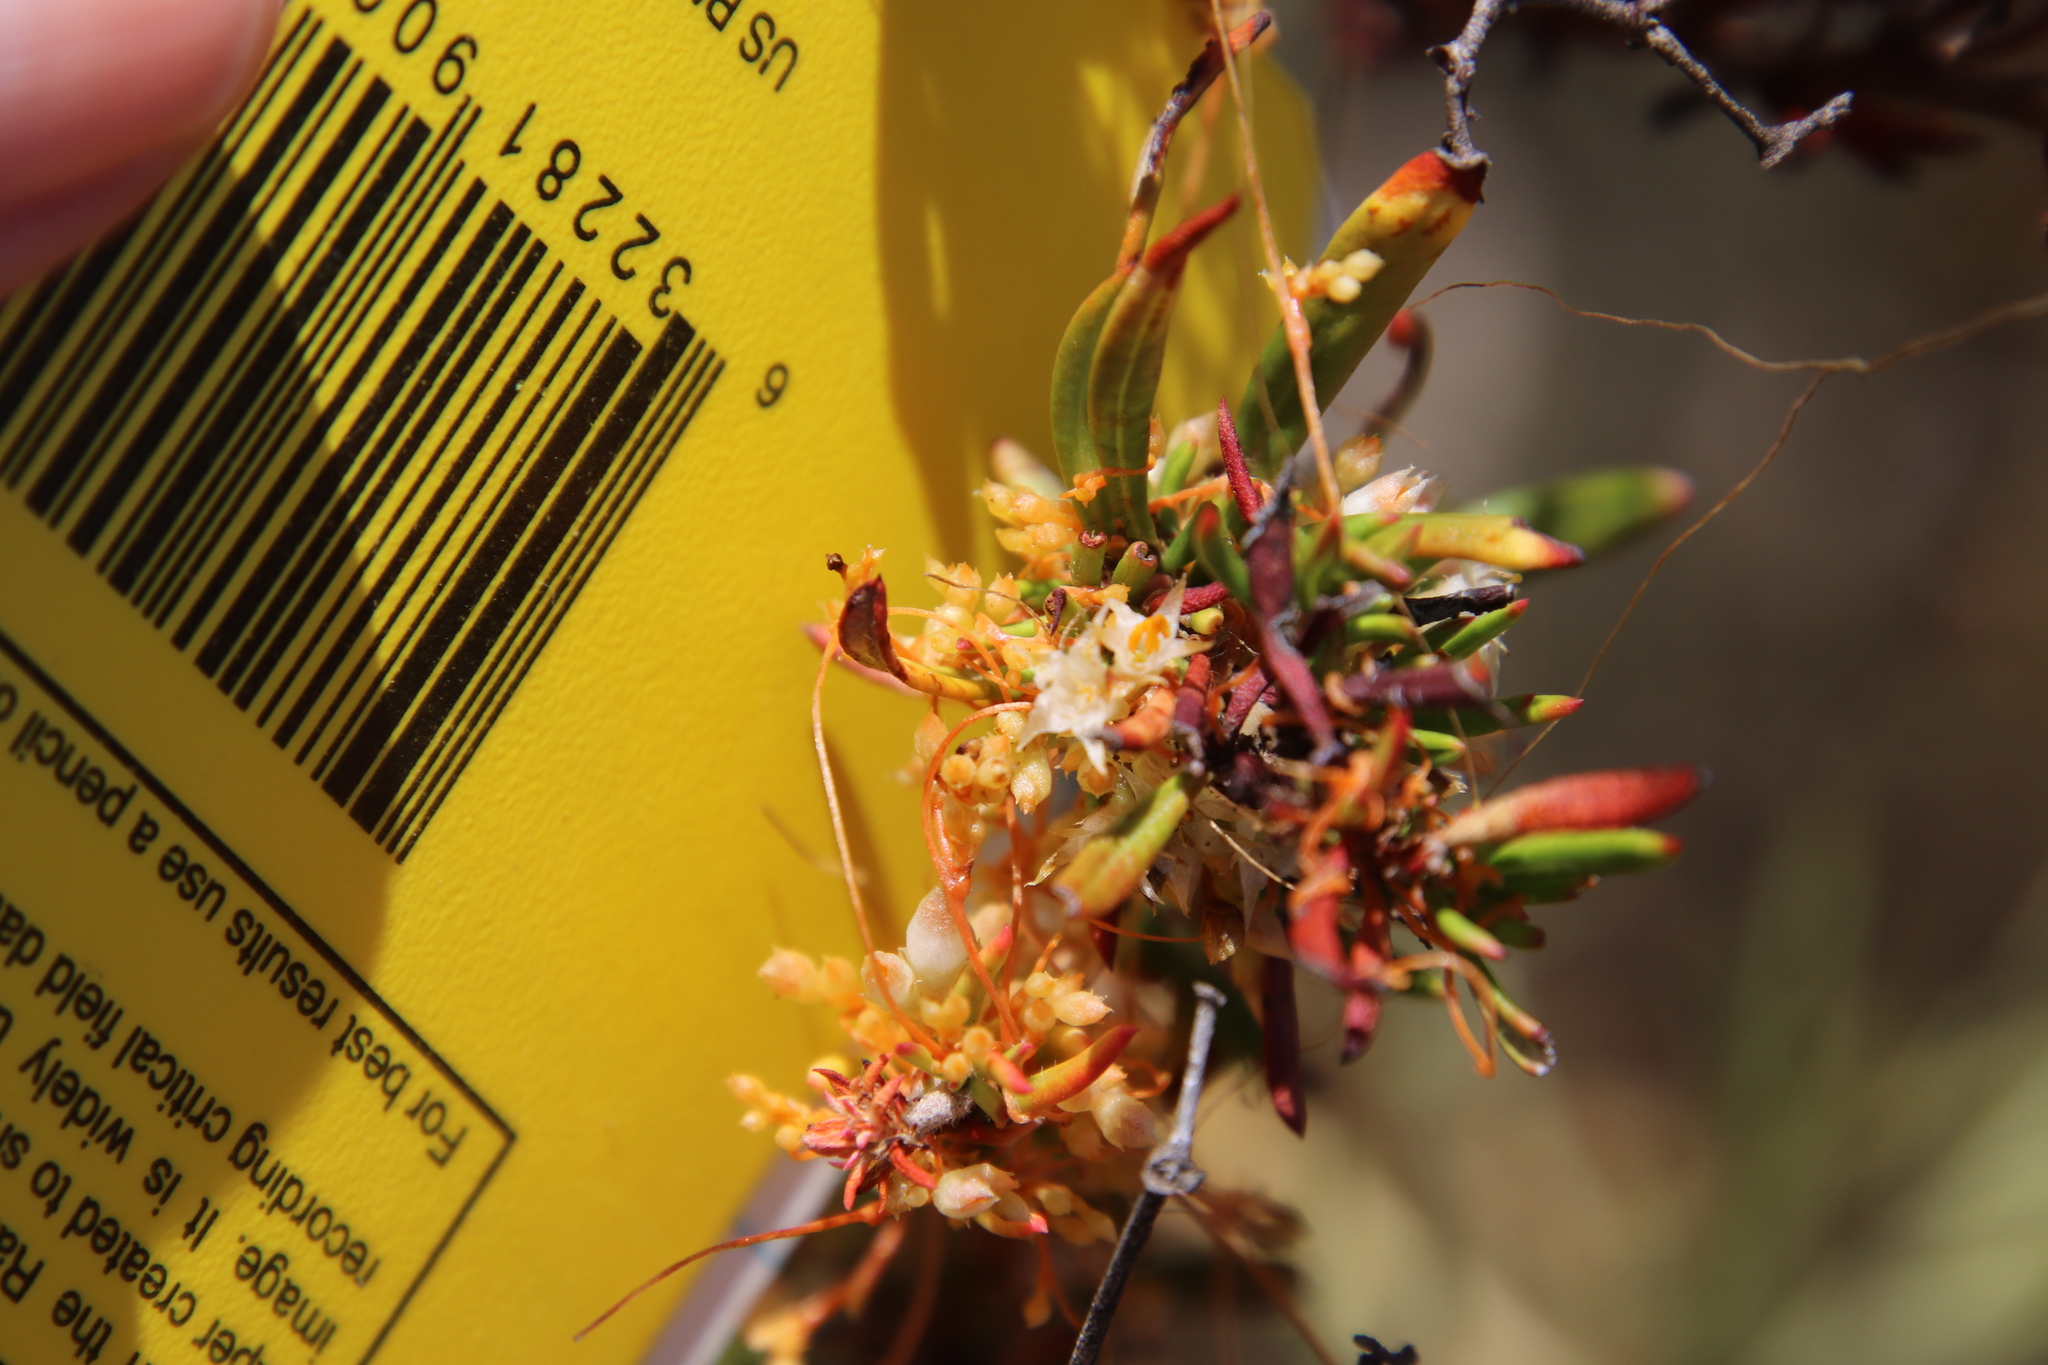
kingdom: Plantae
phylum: Tracheophyta
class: Magnoliopsida
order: Solanales
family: Convolvulaceae
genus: Cuscuta
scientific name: Cuscuta californica
